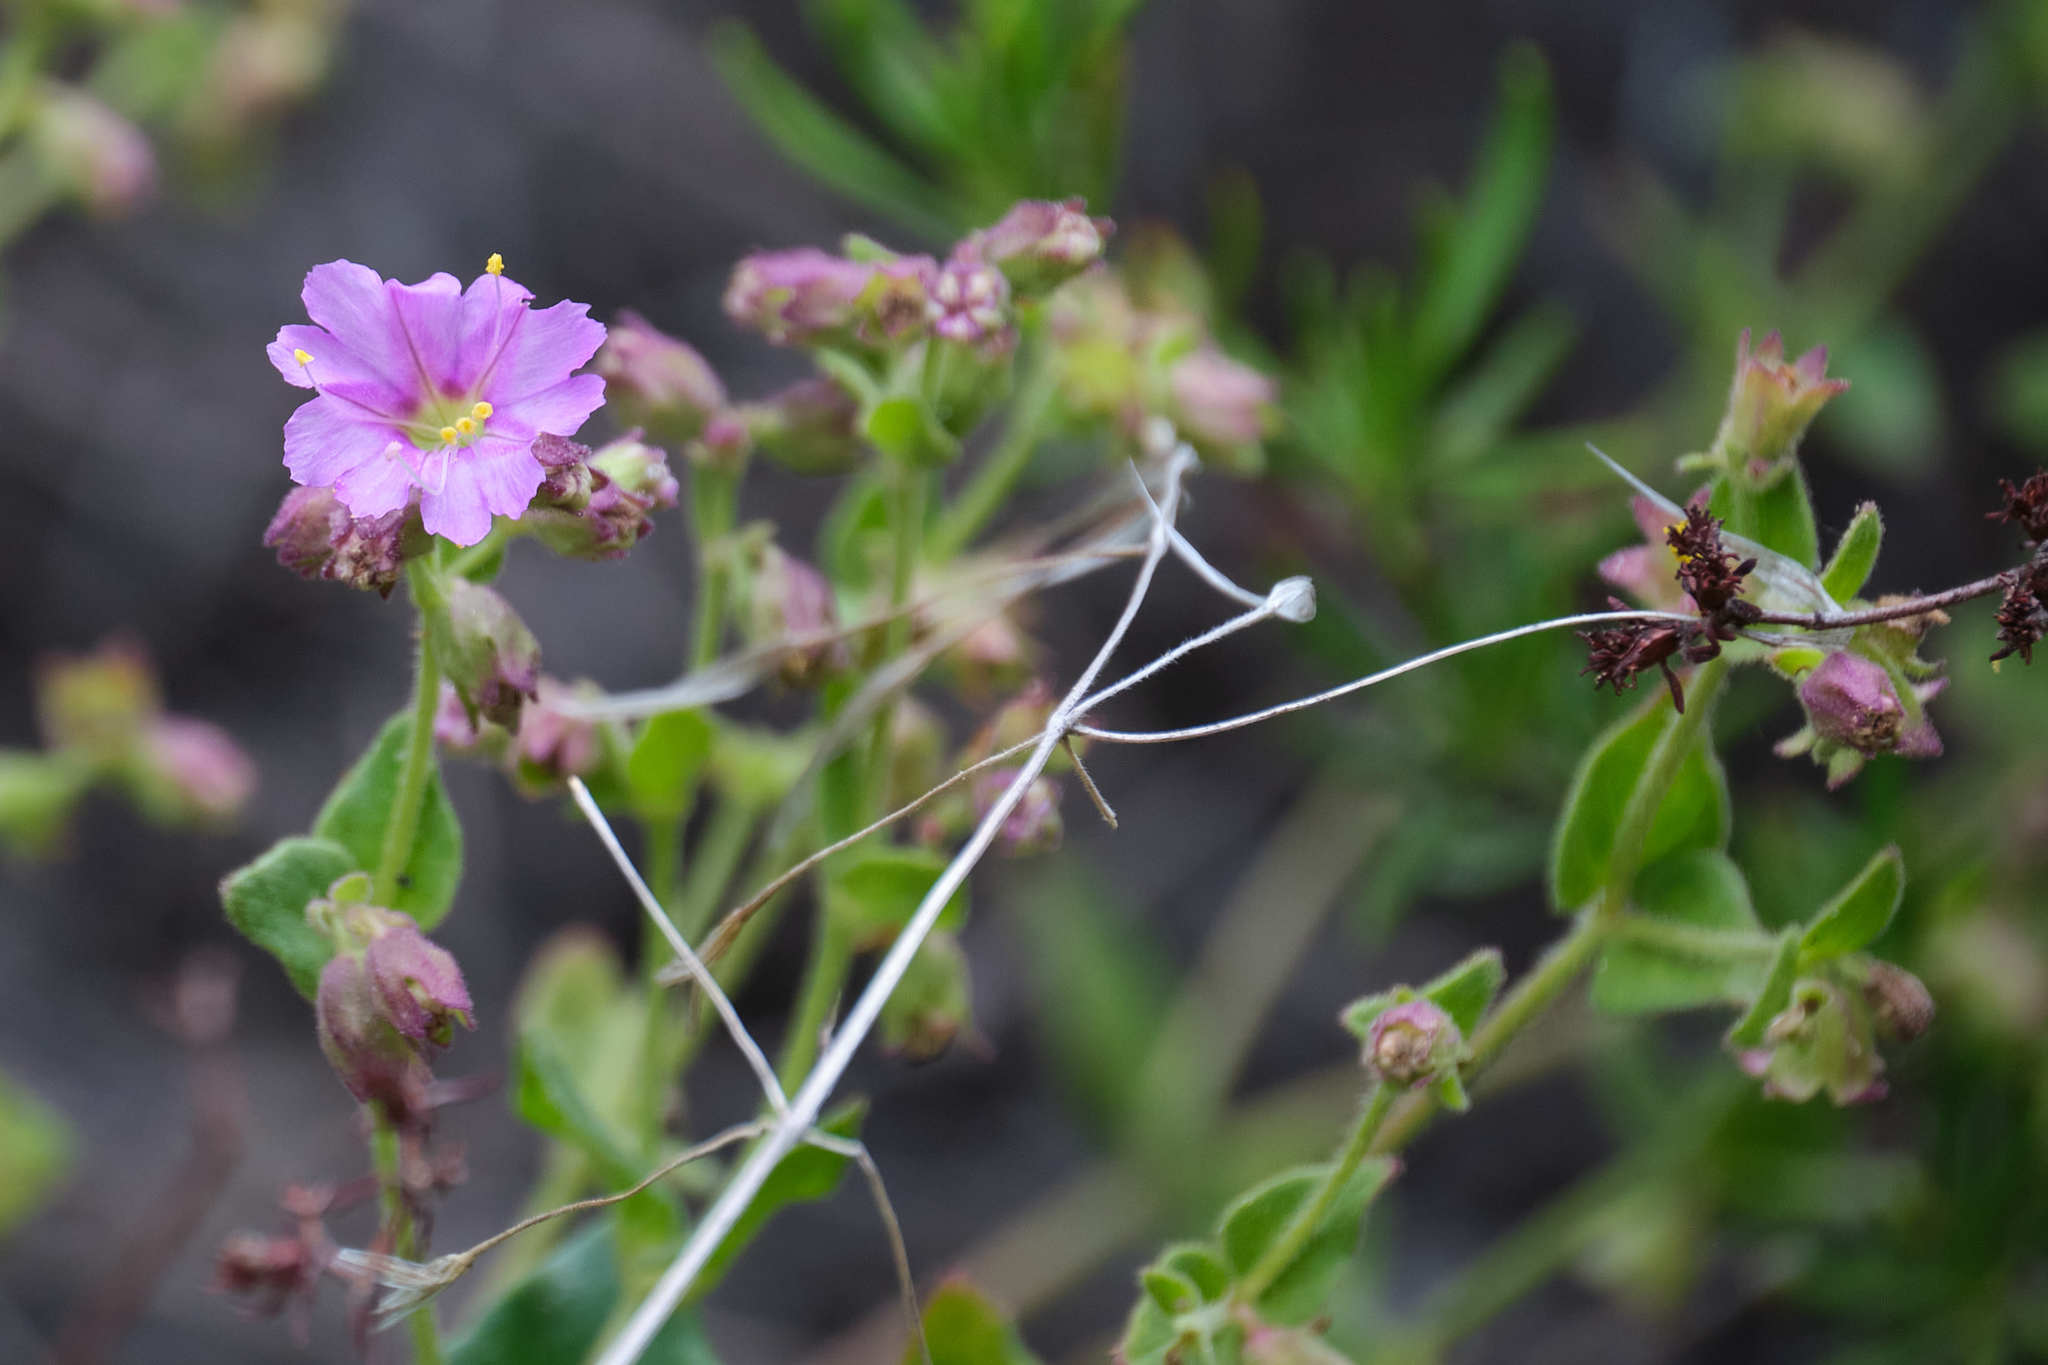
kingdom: Plantae
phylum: Tracheophyta
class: Magnoliopsida
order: Caryophyllales
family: Nyctaginaceae
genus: Mirabilis
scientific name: Mirabilis laevis
